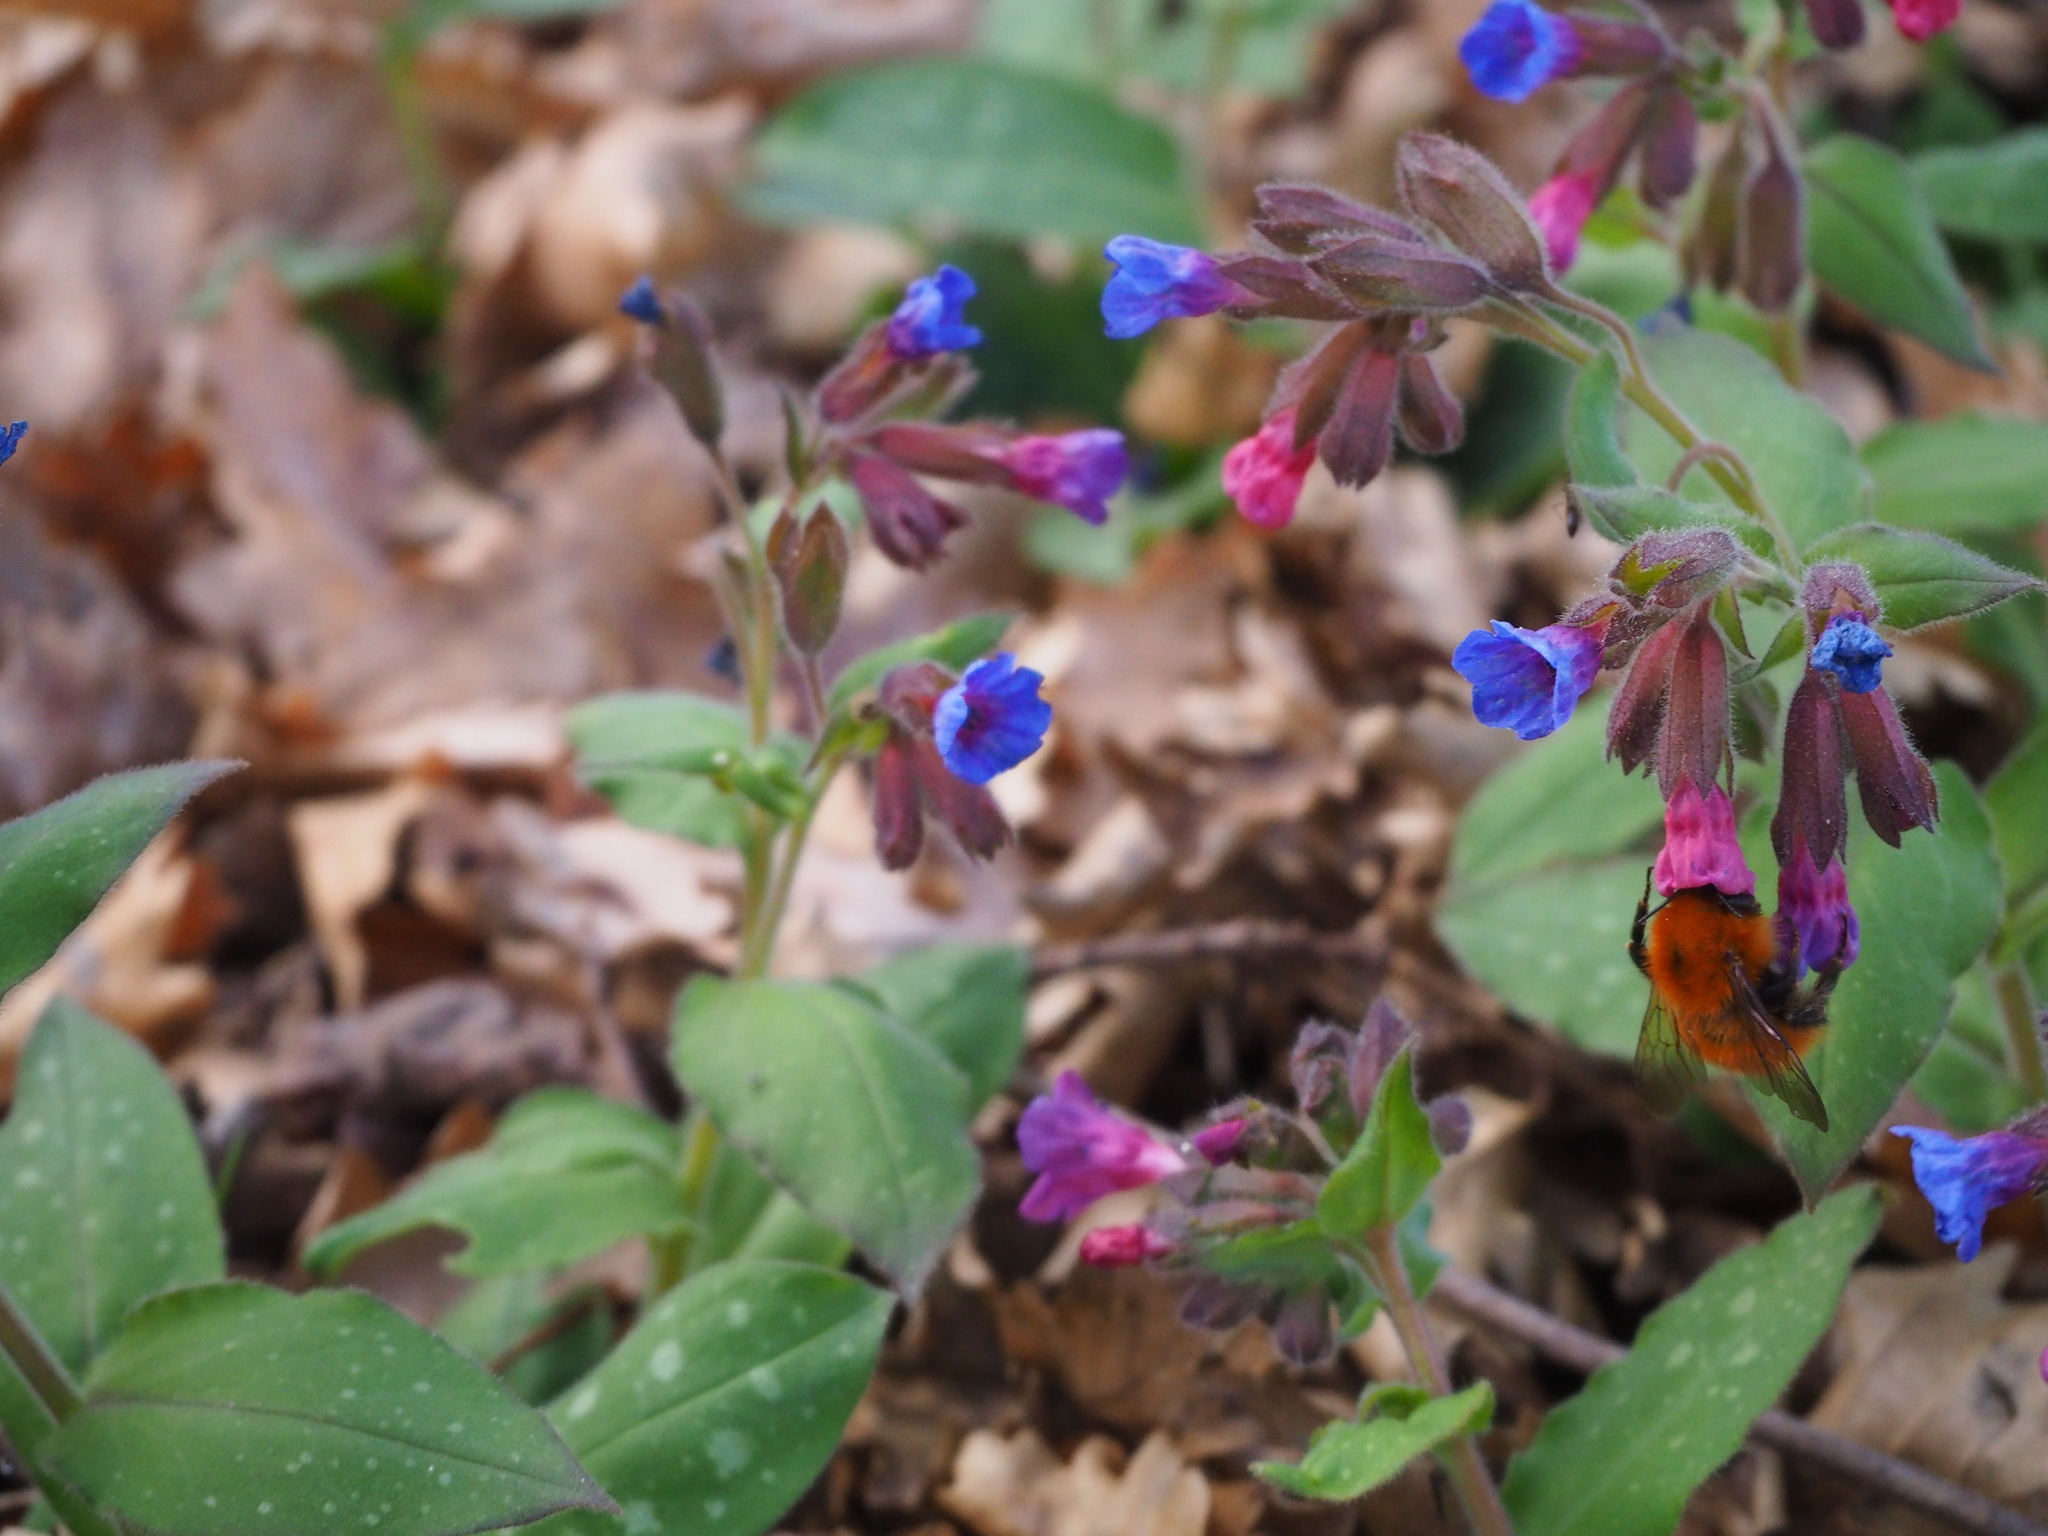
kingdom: Animalia
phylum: Arthropoda
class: Insecta
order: Hymenoptera
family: Apidae
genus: Bombus
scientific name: Bombus pascuorum
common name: Common carder bee
